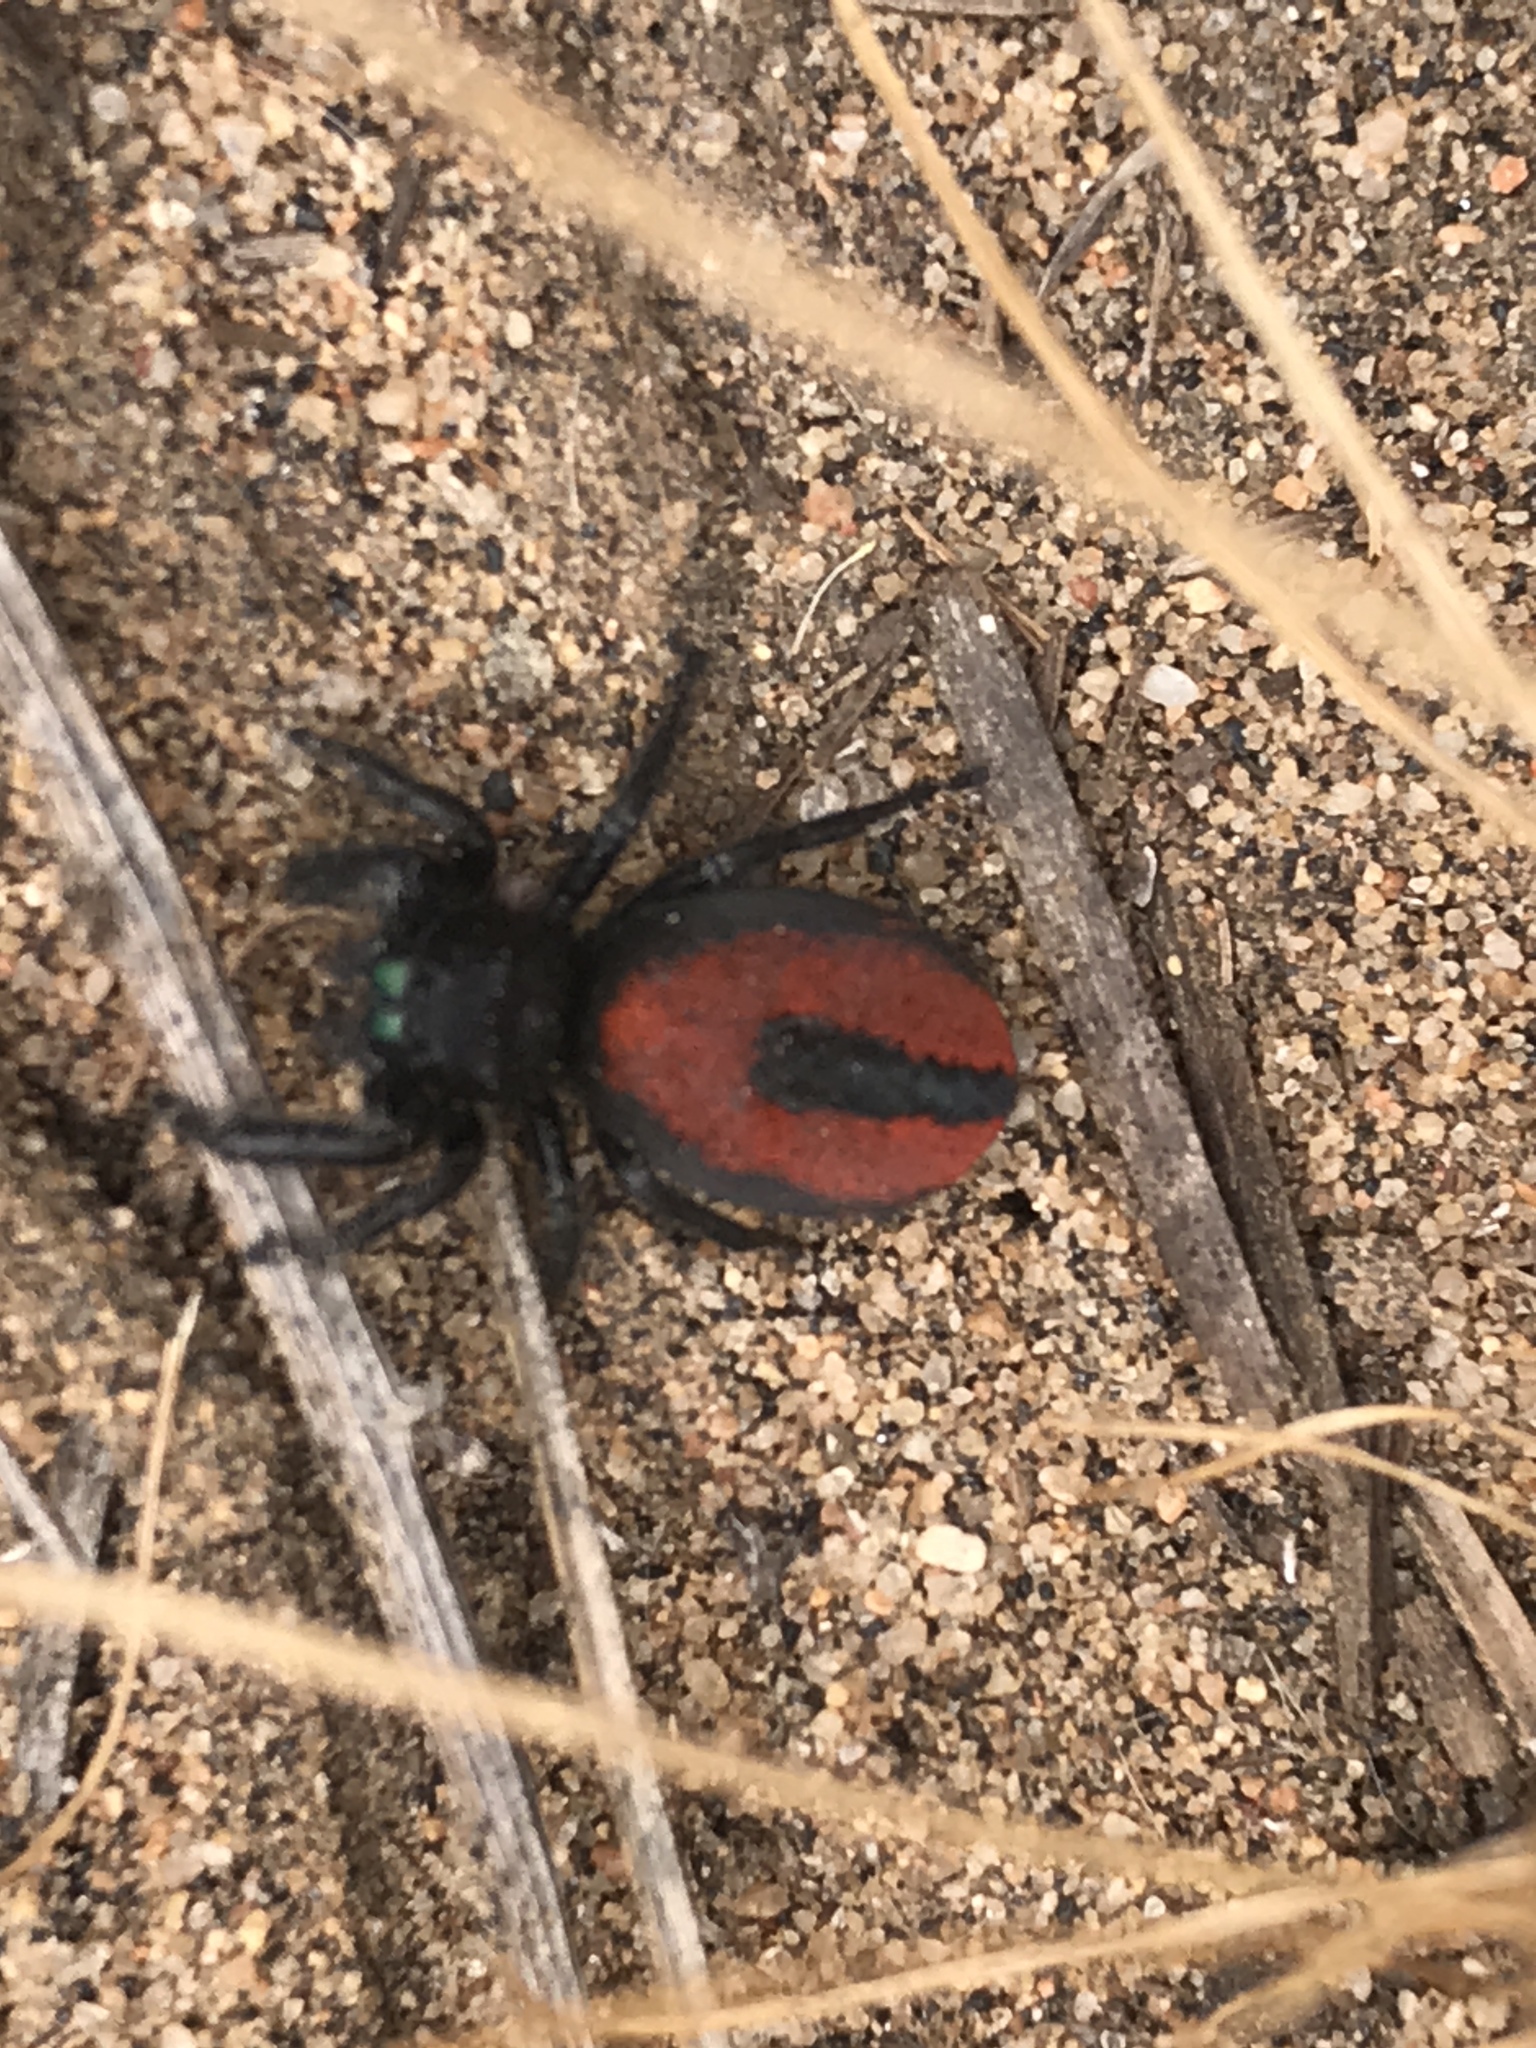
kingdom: Animalia
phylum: Arthropoda
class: Arachnida
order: Araneae
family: Salticidae
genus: Phidippus
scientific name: Phidippus johnsoni
